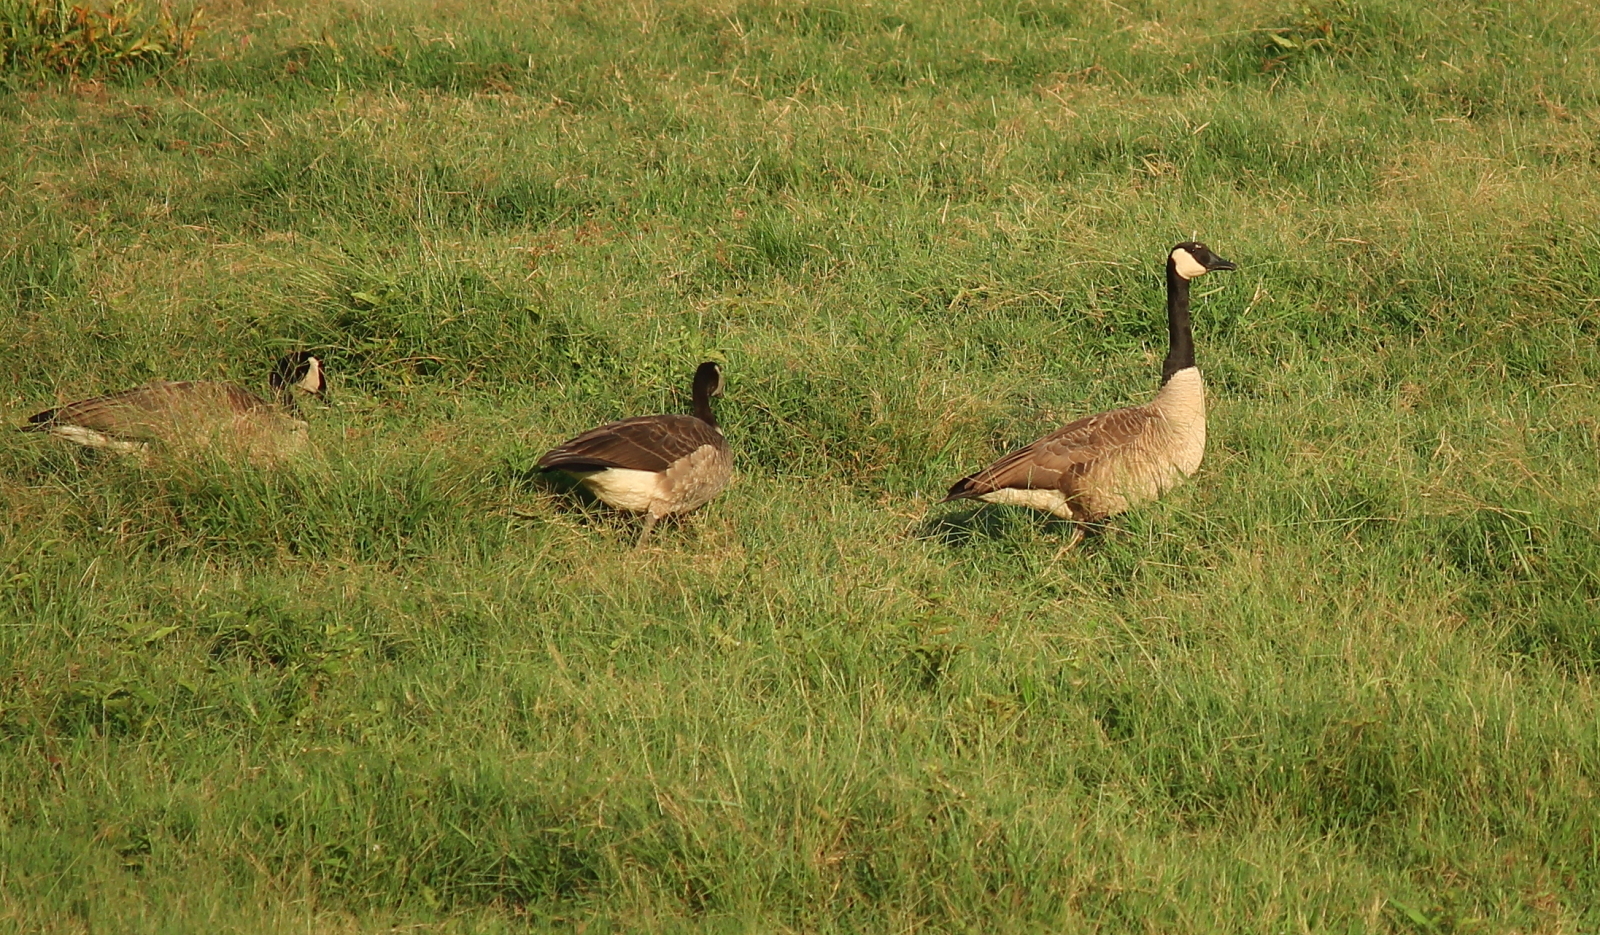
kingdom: Animalia
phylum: Chordata
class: Aves
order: Anseriformes
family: Anatidae
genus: Branta
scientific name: Branta canadensis
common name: Canada goose
